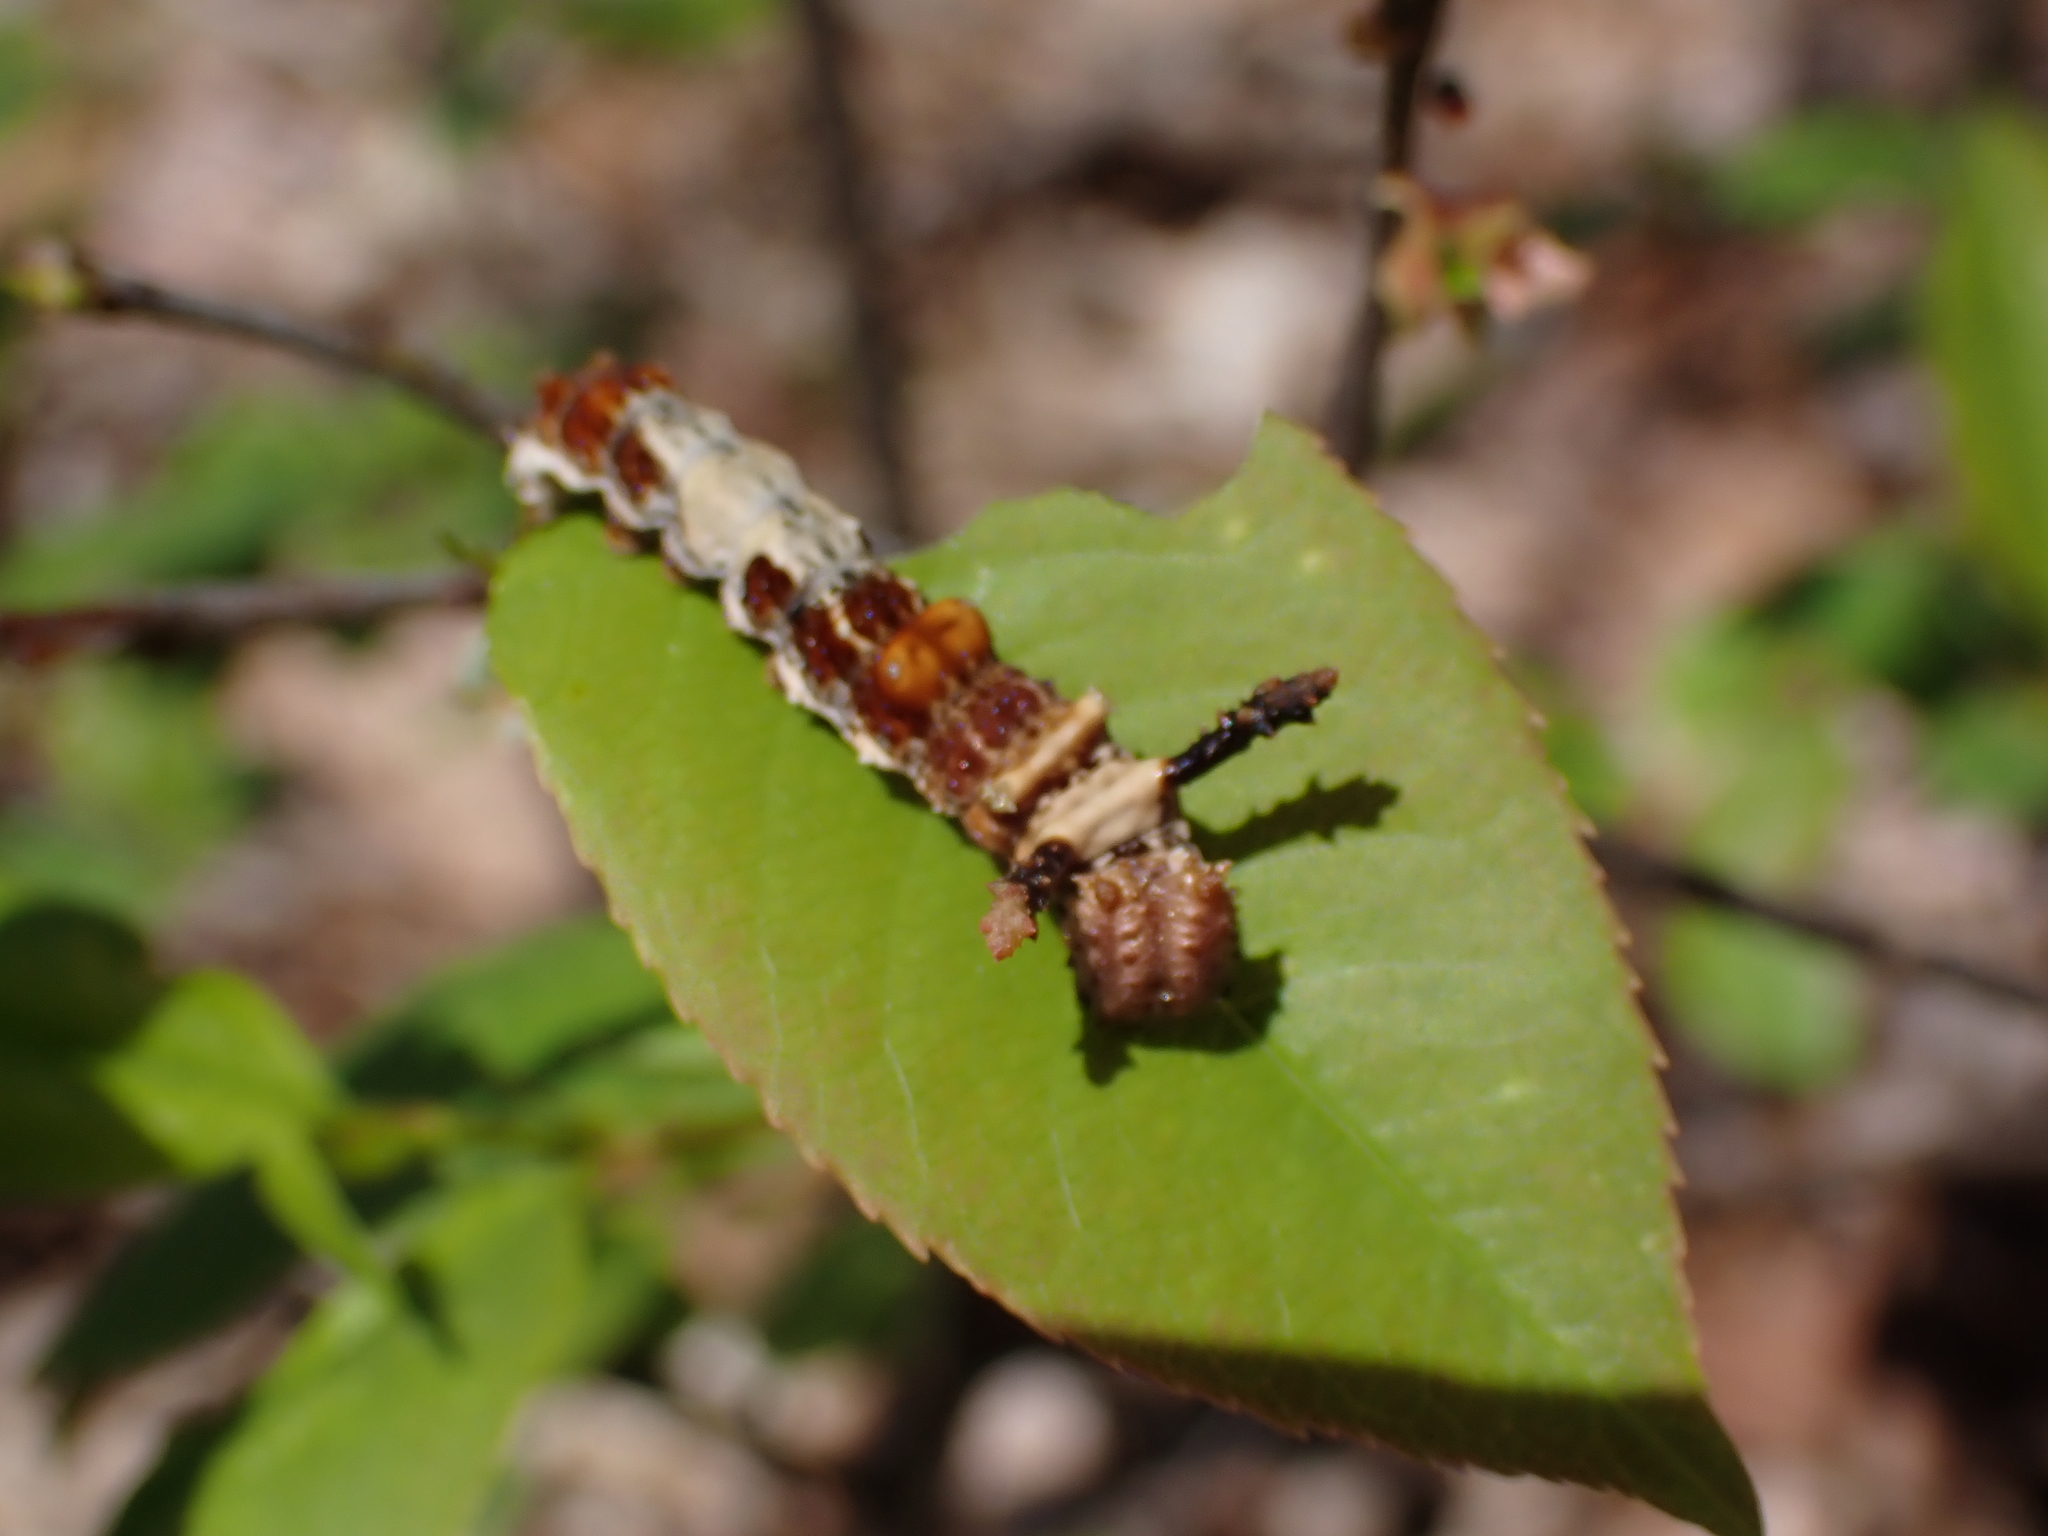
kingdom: Animalia
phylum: Arthropoda
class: Insecta
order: Lepidoptera
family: Nymphalidae
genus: Limenitis
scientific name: Limenitis archippus
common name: Viceroy
